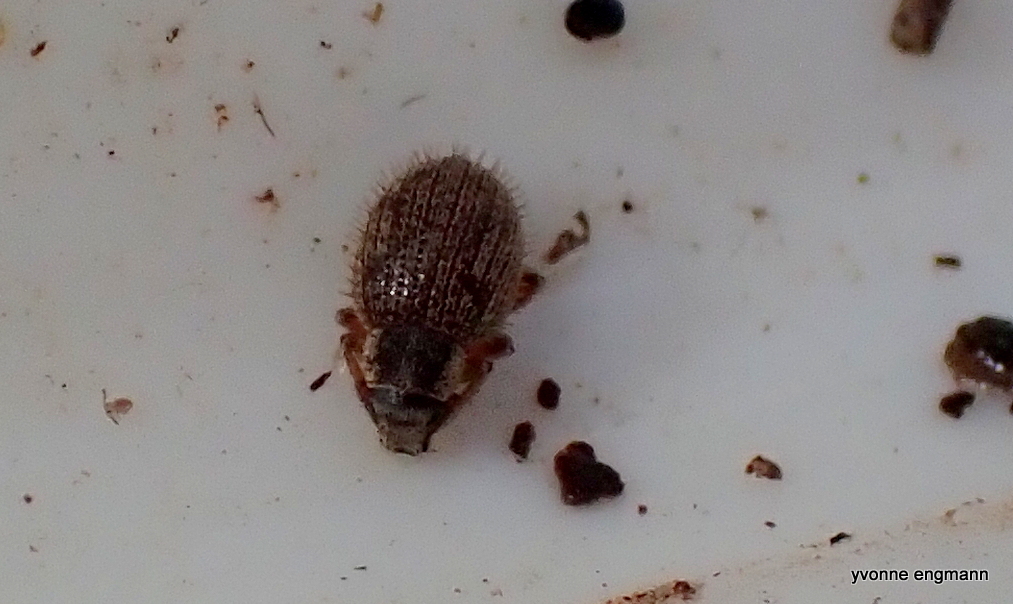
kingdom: Animalia
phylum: Arthropoda
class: Insecta
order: Coleoptera
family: Curculionidae
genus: Brachysomus
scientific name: Brachysomus echinatus
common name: Weevil
